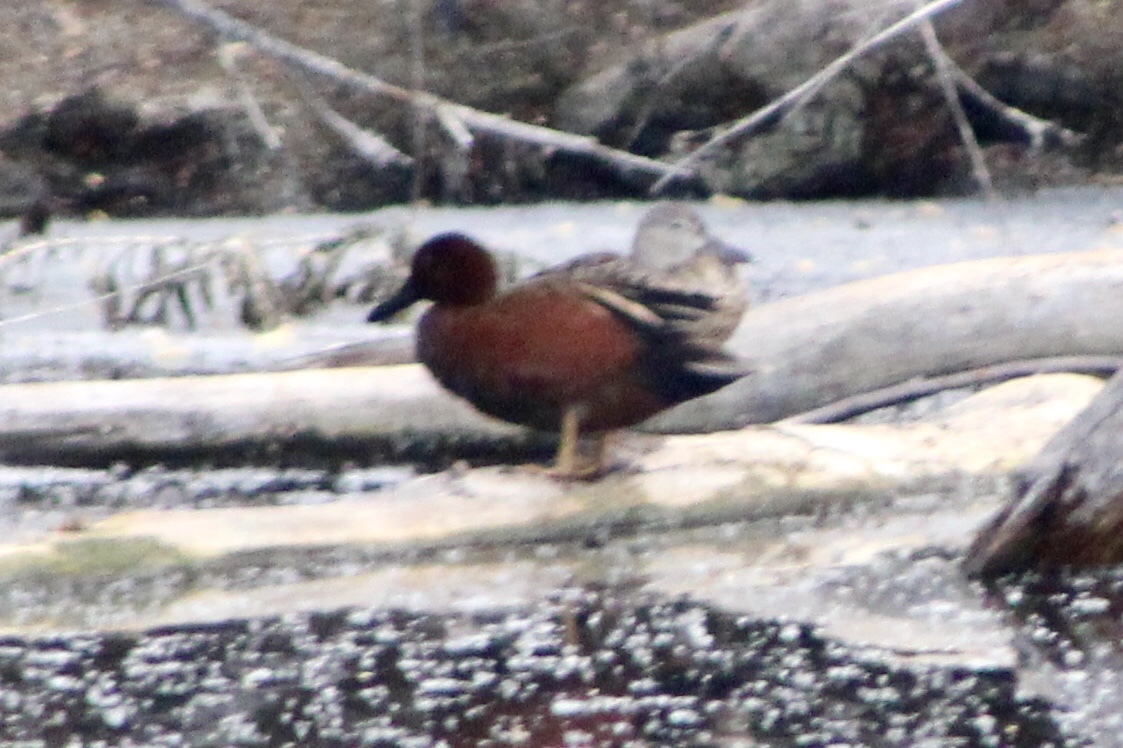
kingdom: Animalia
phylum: Chordata
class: Aves
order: Anseriformes
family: Anatidae
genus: Spatula
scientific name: Spatula cyanoptera
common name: Cinnamon teal
